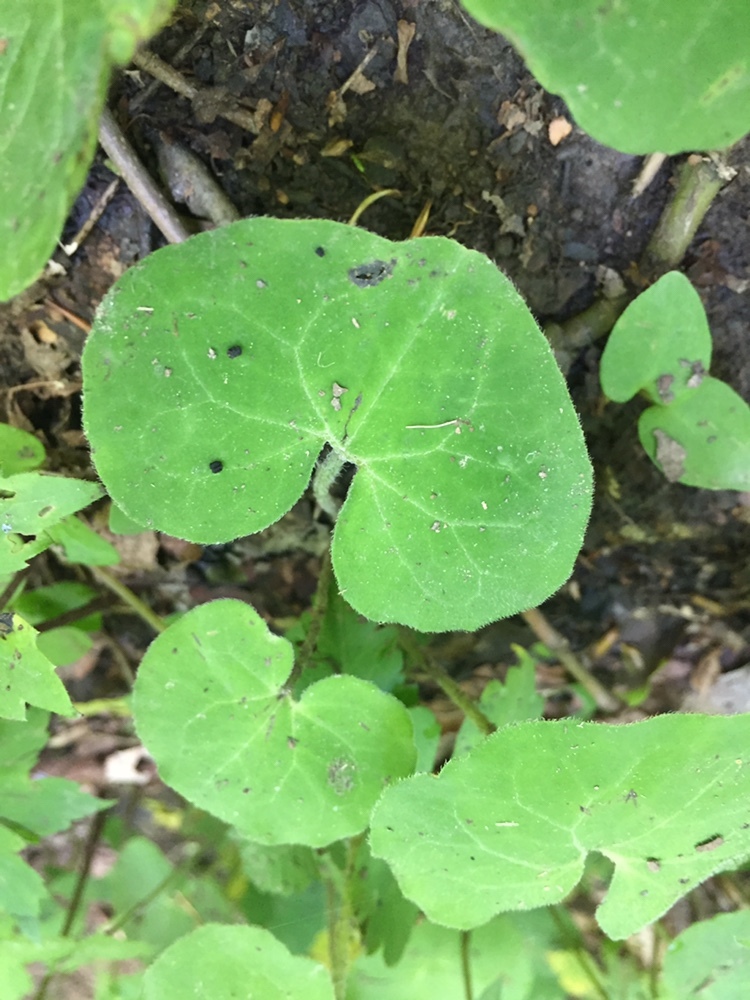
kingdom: Plantae
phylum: Tracheophyta
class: Magnoliopsida
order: Piperales
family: Aristolochiaceae
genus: Asarum
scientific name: Asarum canadense
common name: Wild ginger
